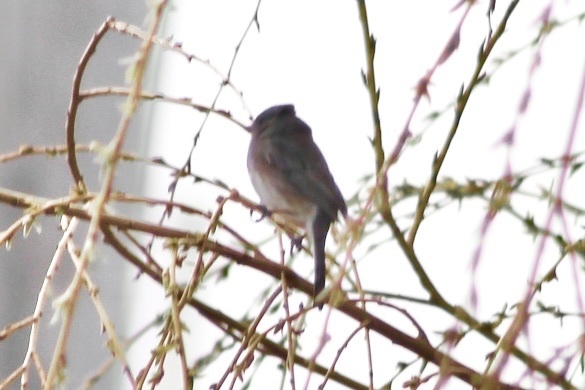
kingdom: Animalia
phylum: Chordata
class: Aves
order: Passeriformes
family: Passerellidae
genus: Junco
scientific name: Junco hyemalis
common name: Dark-eyed junco
